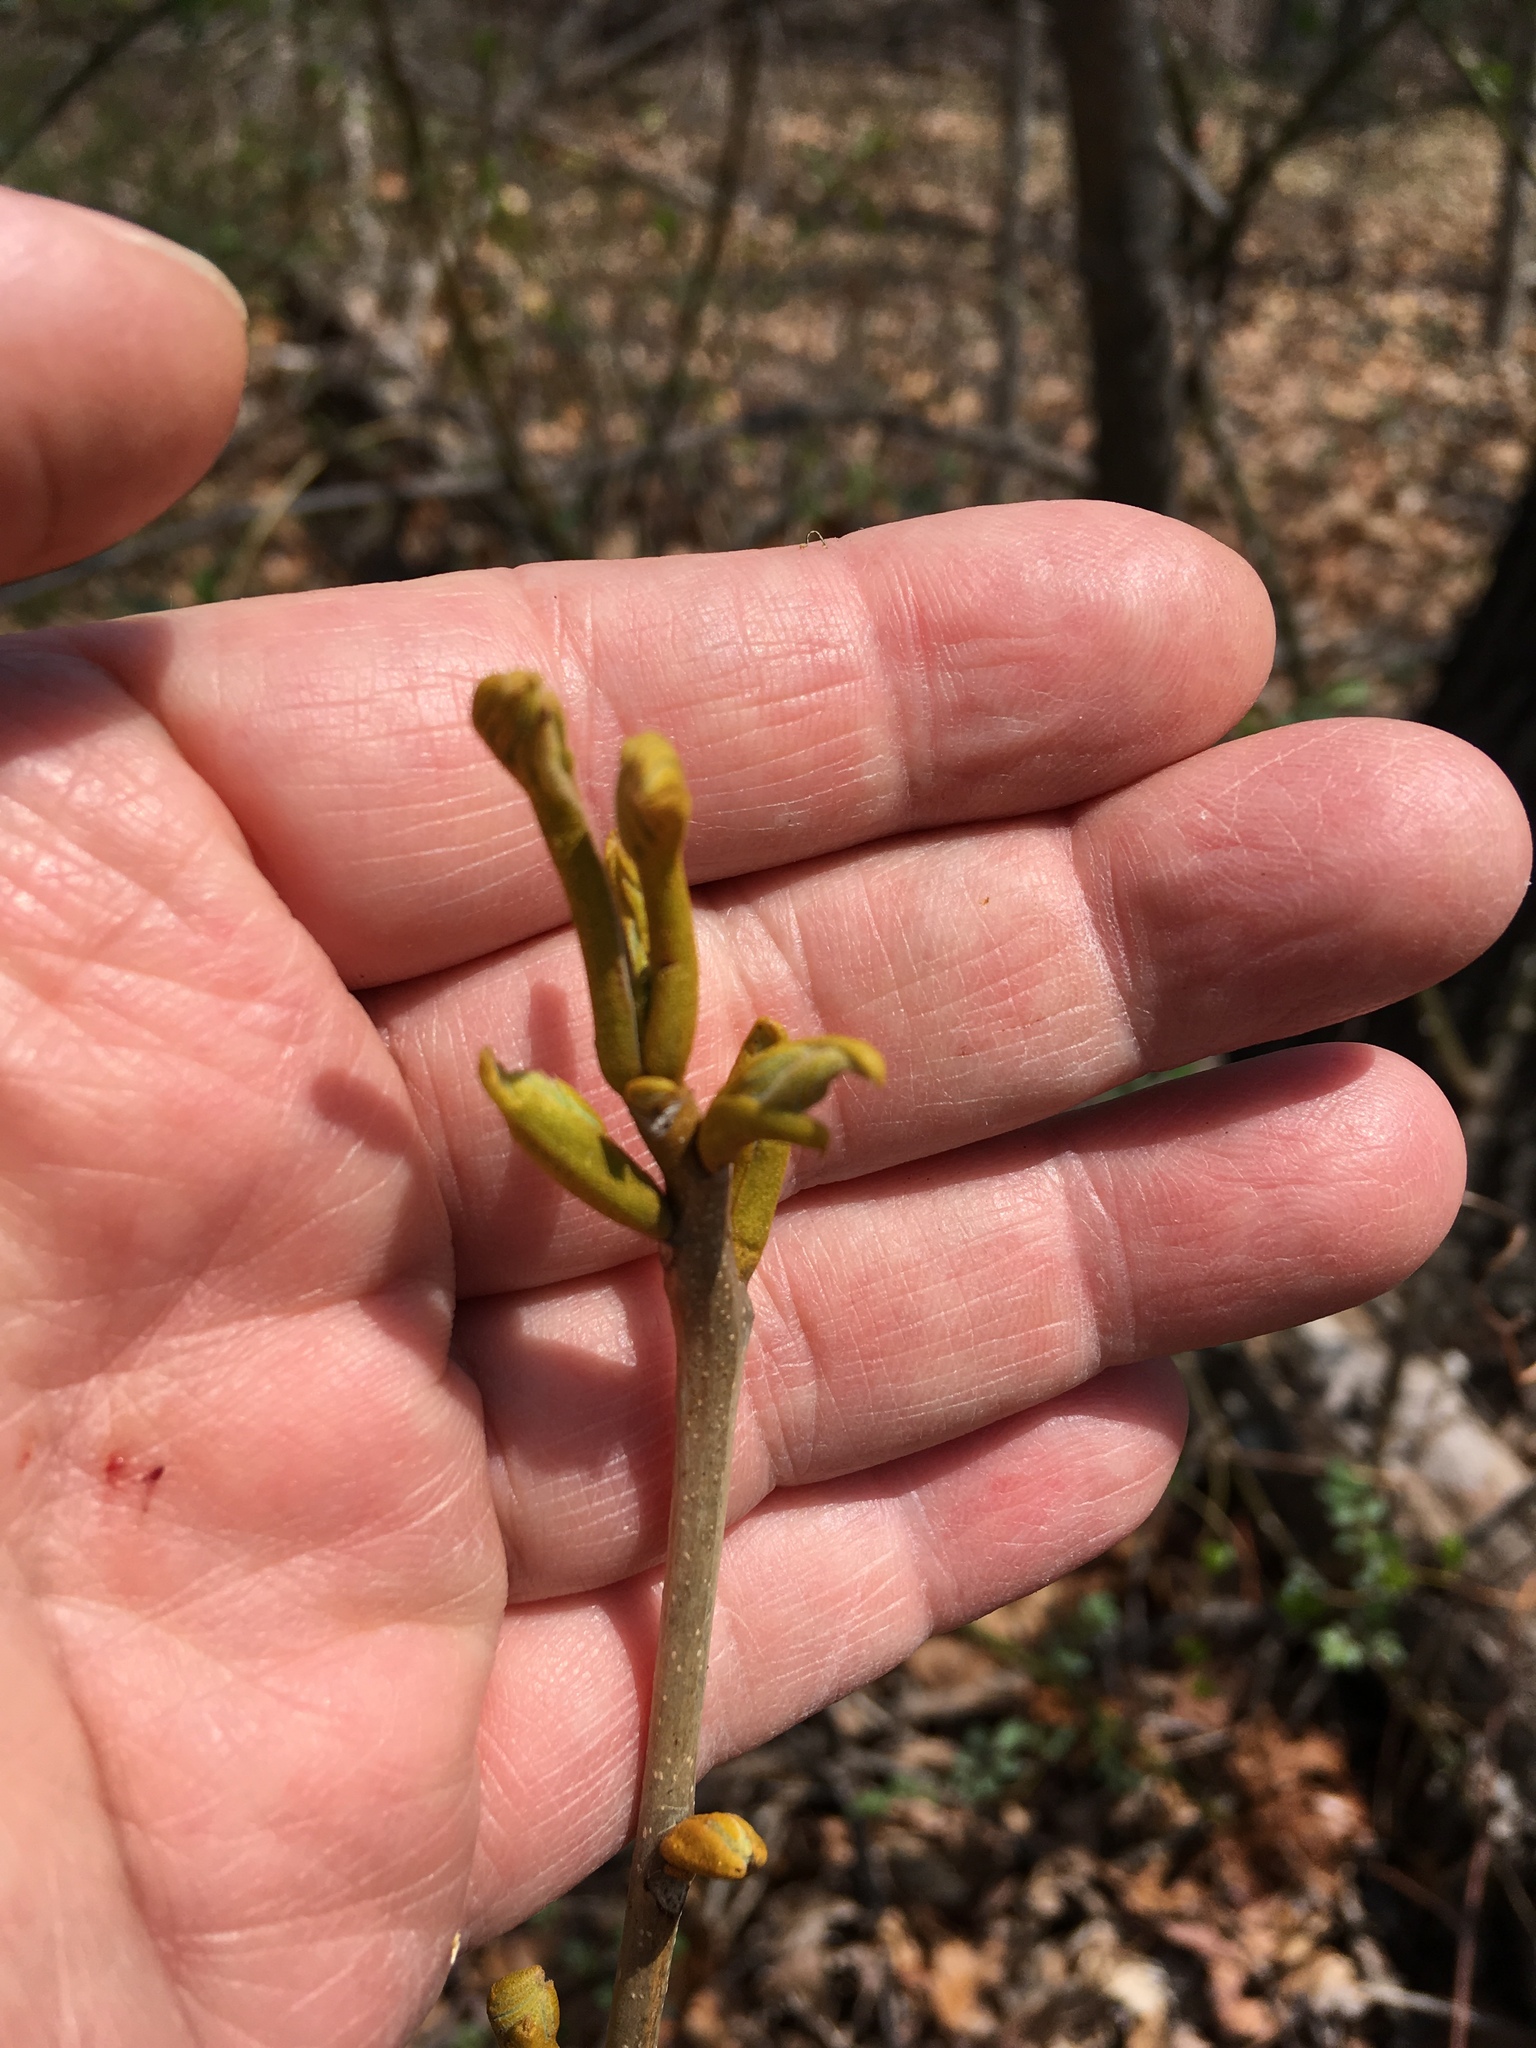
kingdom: Plantae
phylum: Tracheophyta
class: Magnoliopsida
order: Fagales
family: Juglandaceae
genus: Carya
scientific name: Carya cordiformis
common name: Bitternut hickory
